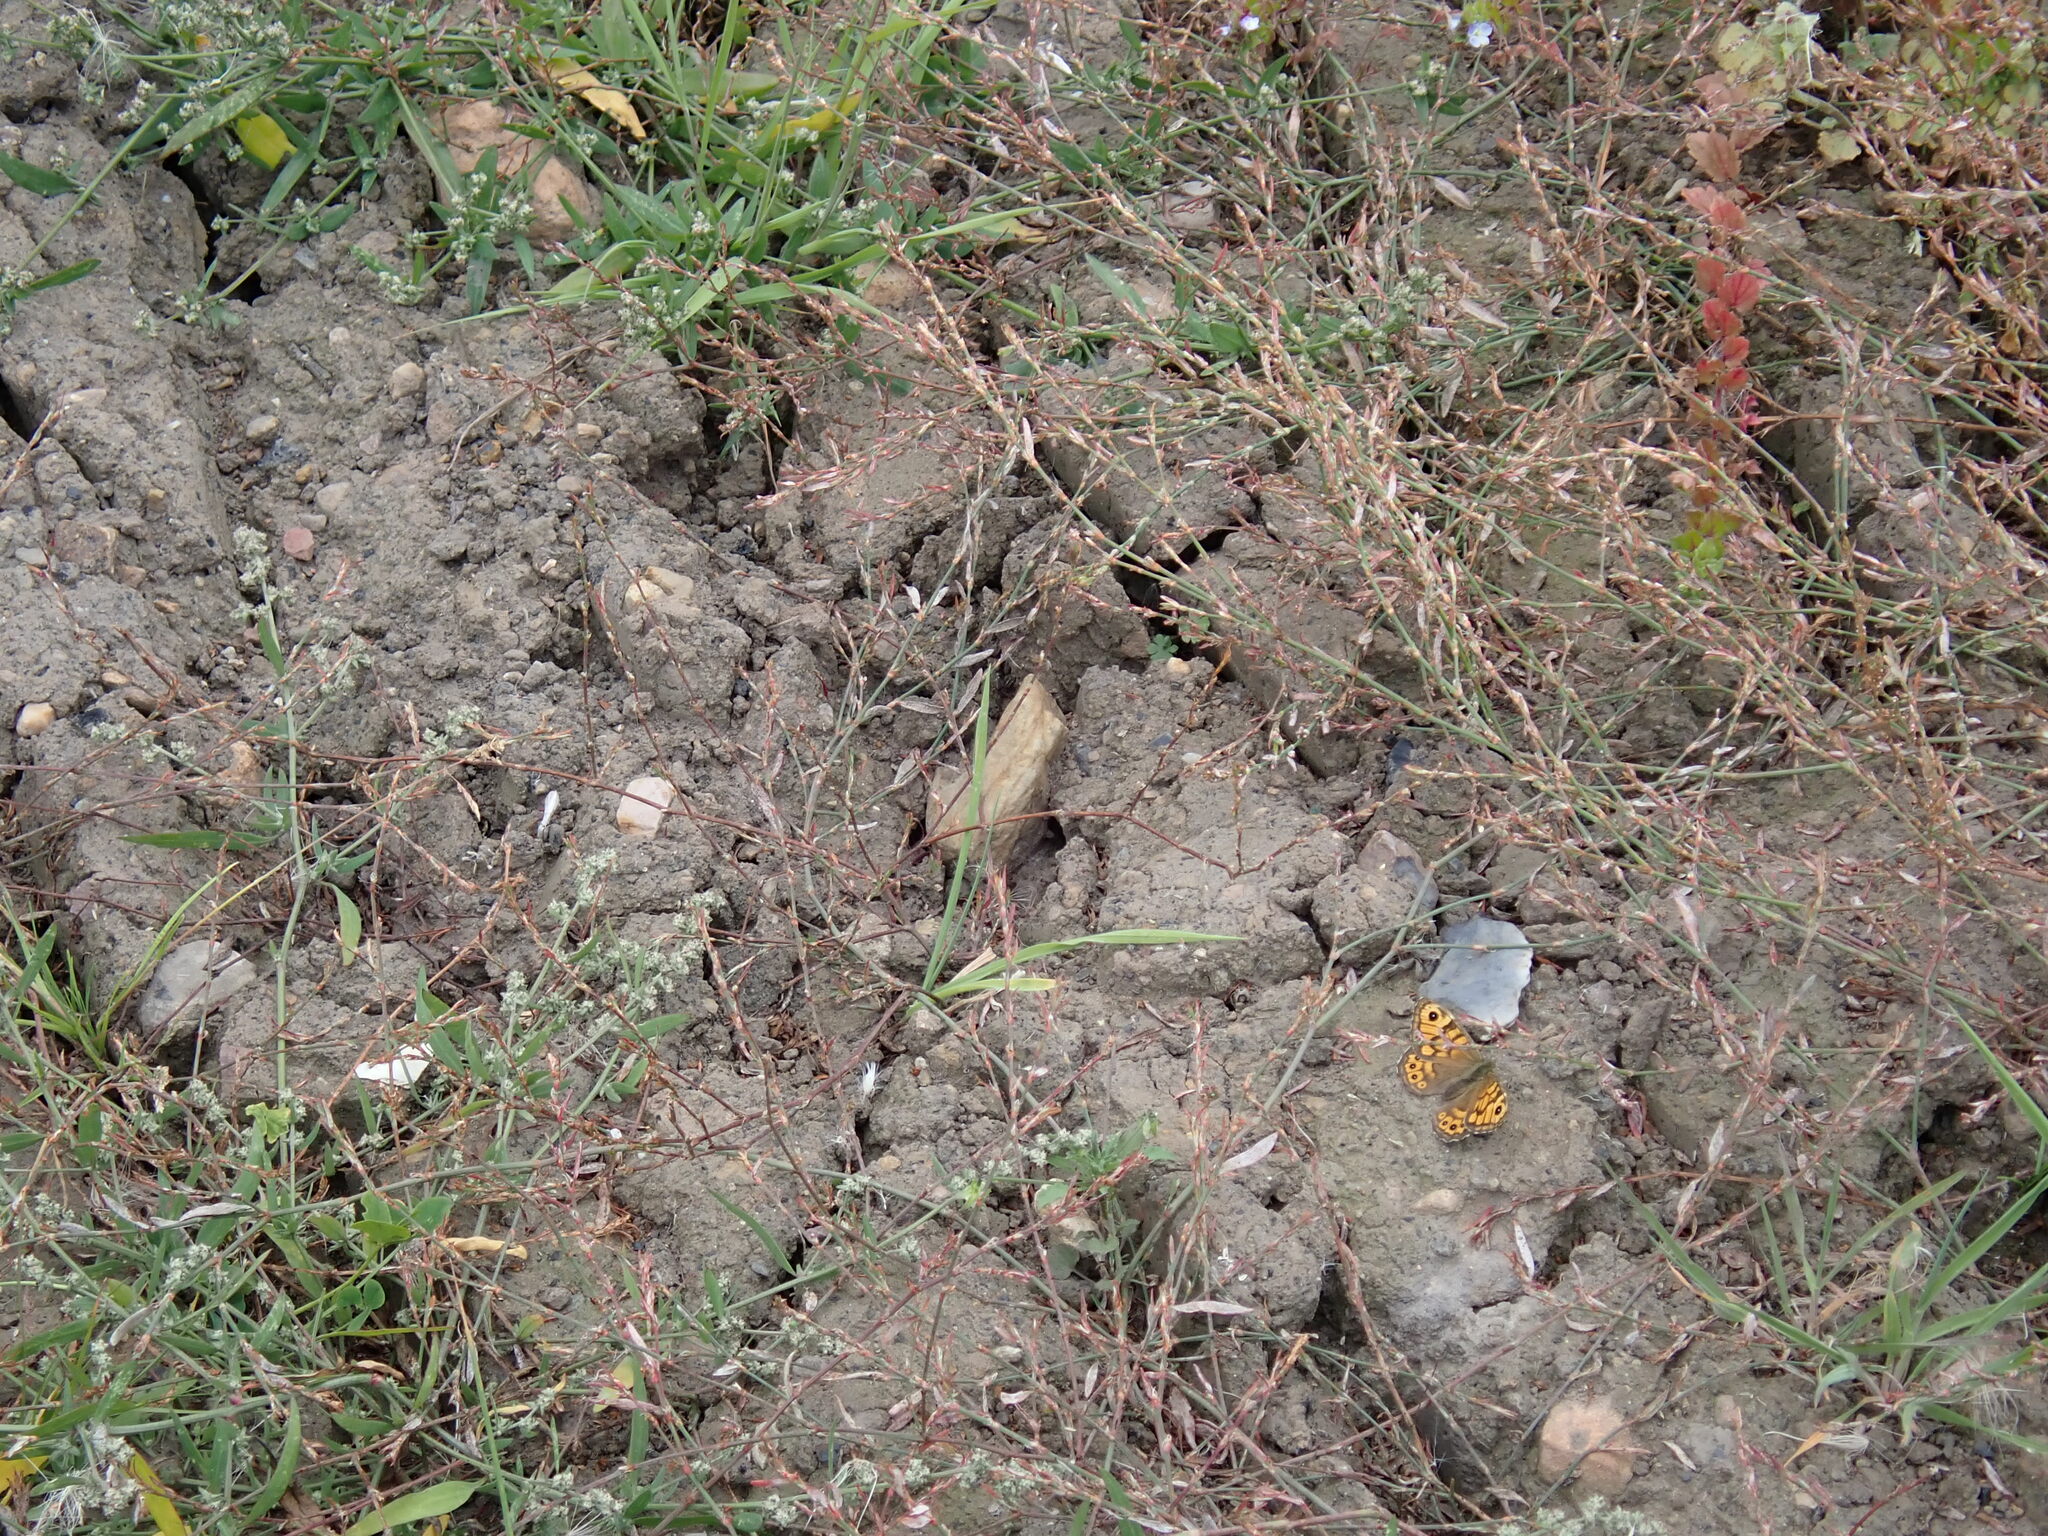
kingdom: Animalia
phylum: Arthropoda
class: Insecta
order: Lepidoptera
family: Nymphalidae
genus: Pararge
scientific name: Pararge Lasiommata megera
